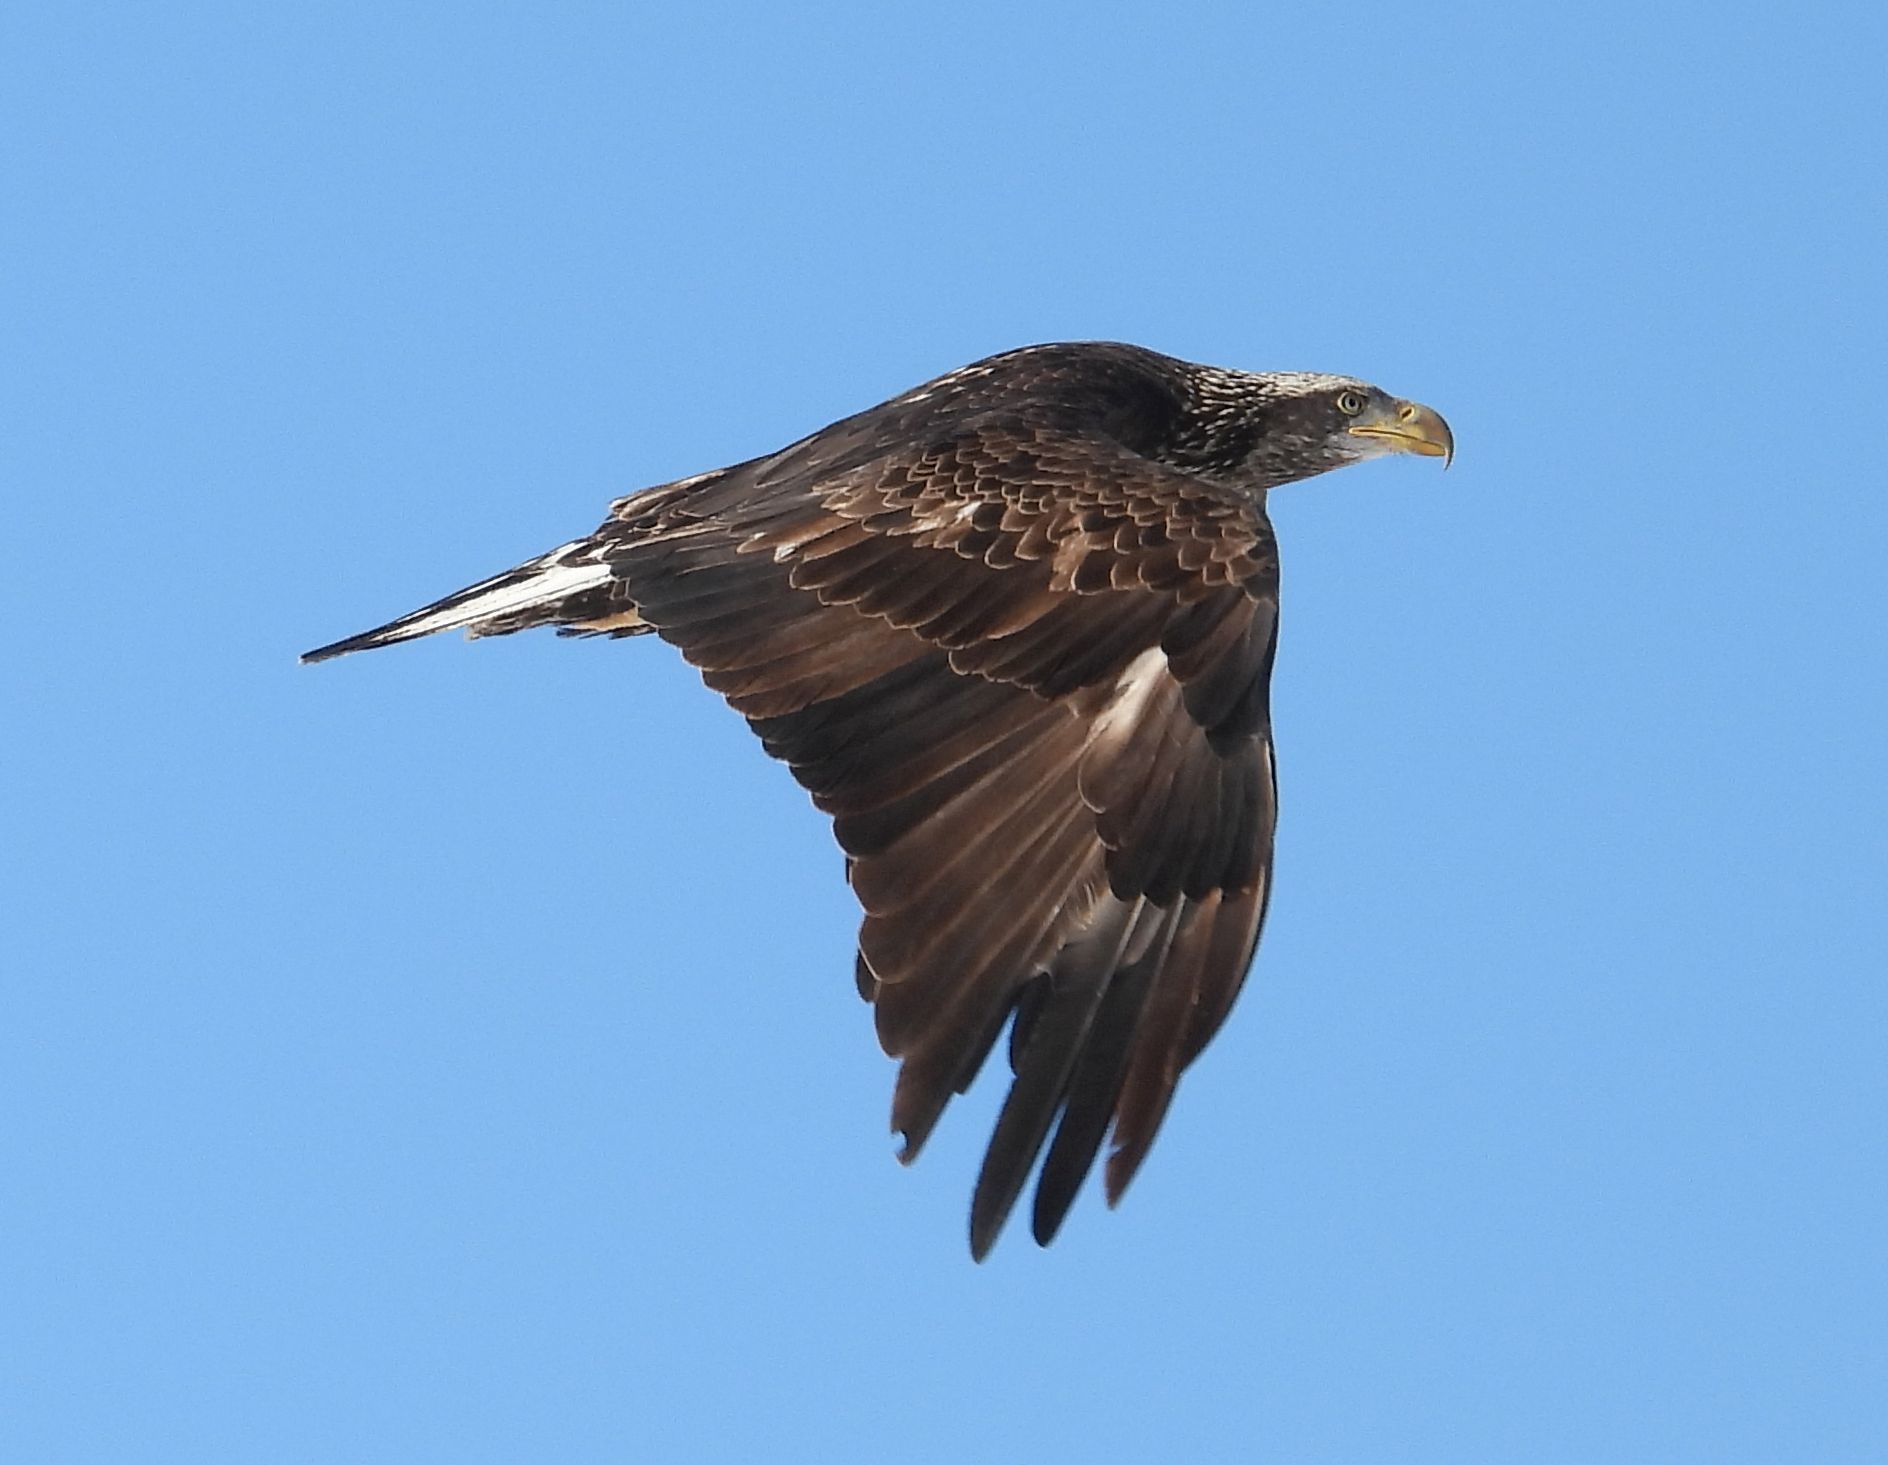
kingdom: Animalia
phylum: Chordata
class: Aves
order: Accipitriformes
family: Accipitridae
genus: Haliaeetus
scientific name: Haliaeetus leucocephalus
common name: Bald eagle
